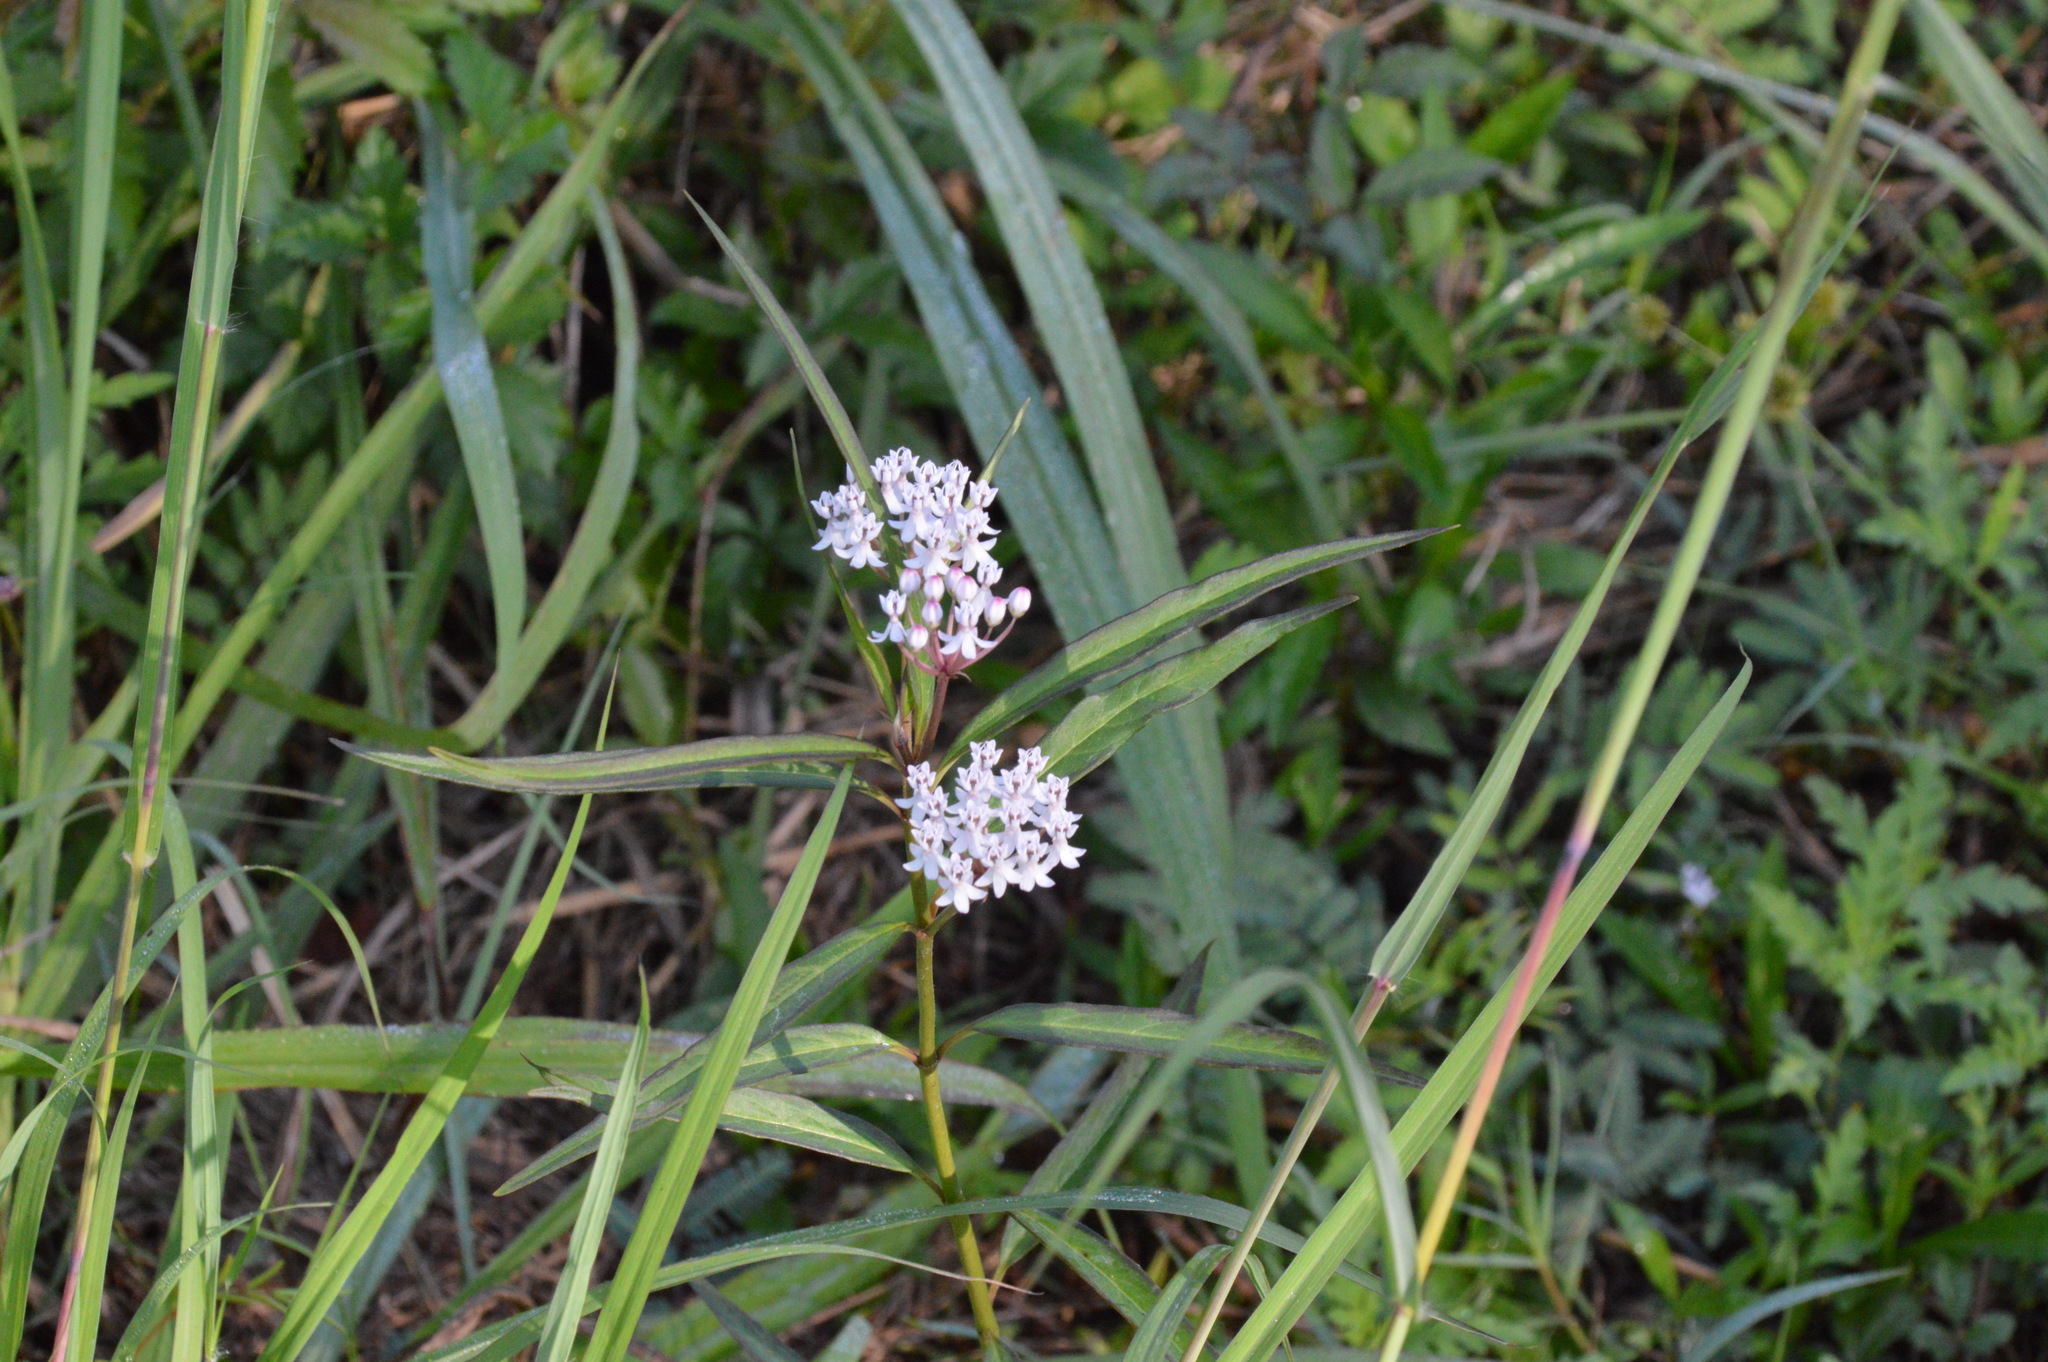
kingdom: Plantae
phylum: Tracheophyta
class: Magnoliopsida
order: Gentianales
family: Apocynaceae
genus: Asclepias
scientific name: Asclepias perennis
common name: Smooth-seed milkweed
